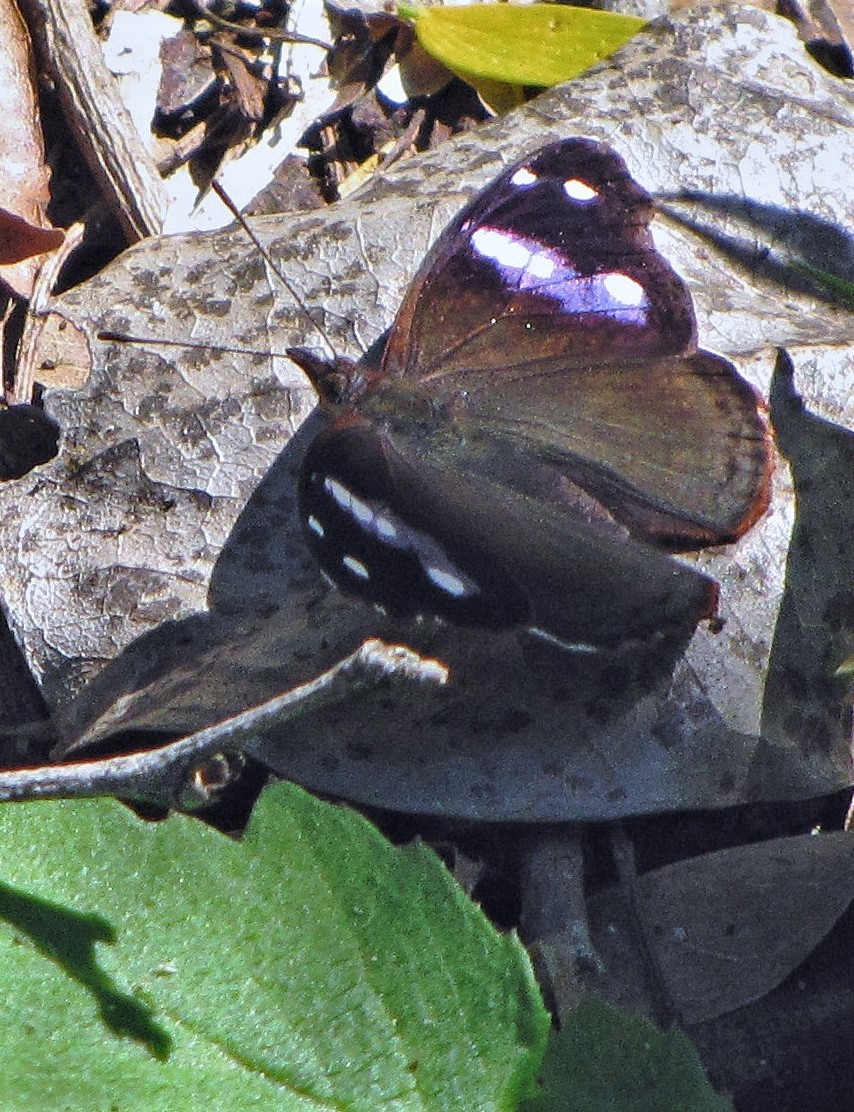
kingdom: Animalia
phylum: Arthropoda
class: Insecta
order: Lepidoptera
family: Nymphalidae
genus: Cybdelis
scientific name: Cybdelis phaesyla
